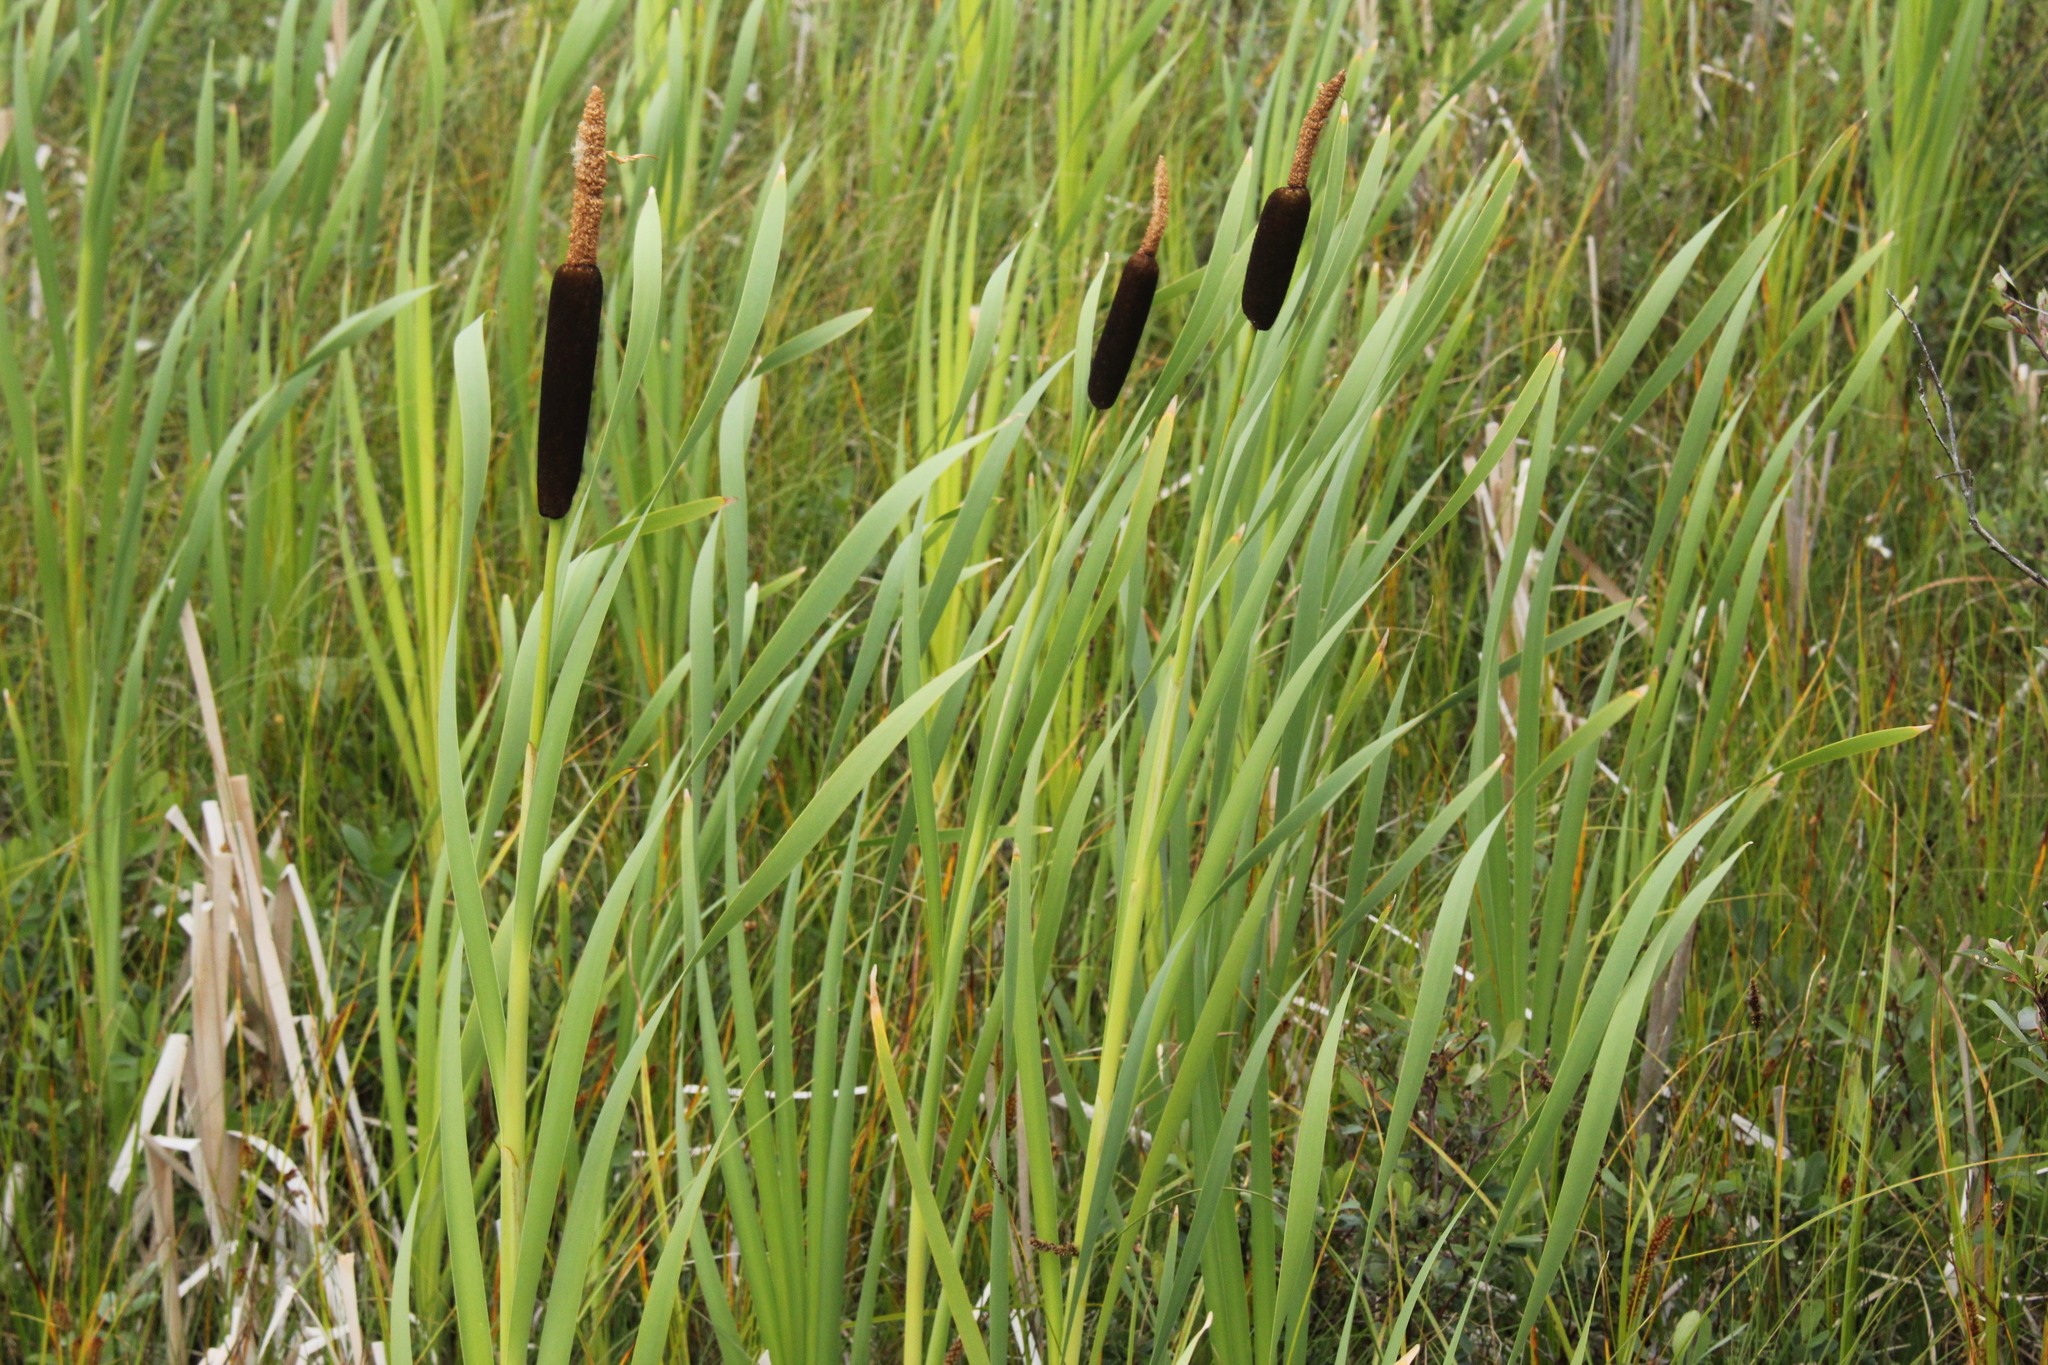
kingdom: Plantae
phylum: Tracheophyta
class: Liliopsida
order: Poales
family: Typhaceae
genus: Typha
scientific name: Typha latifolia
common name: Broadleaf cattail
